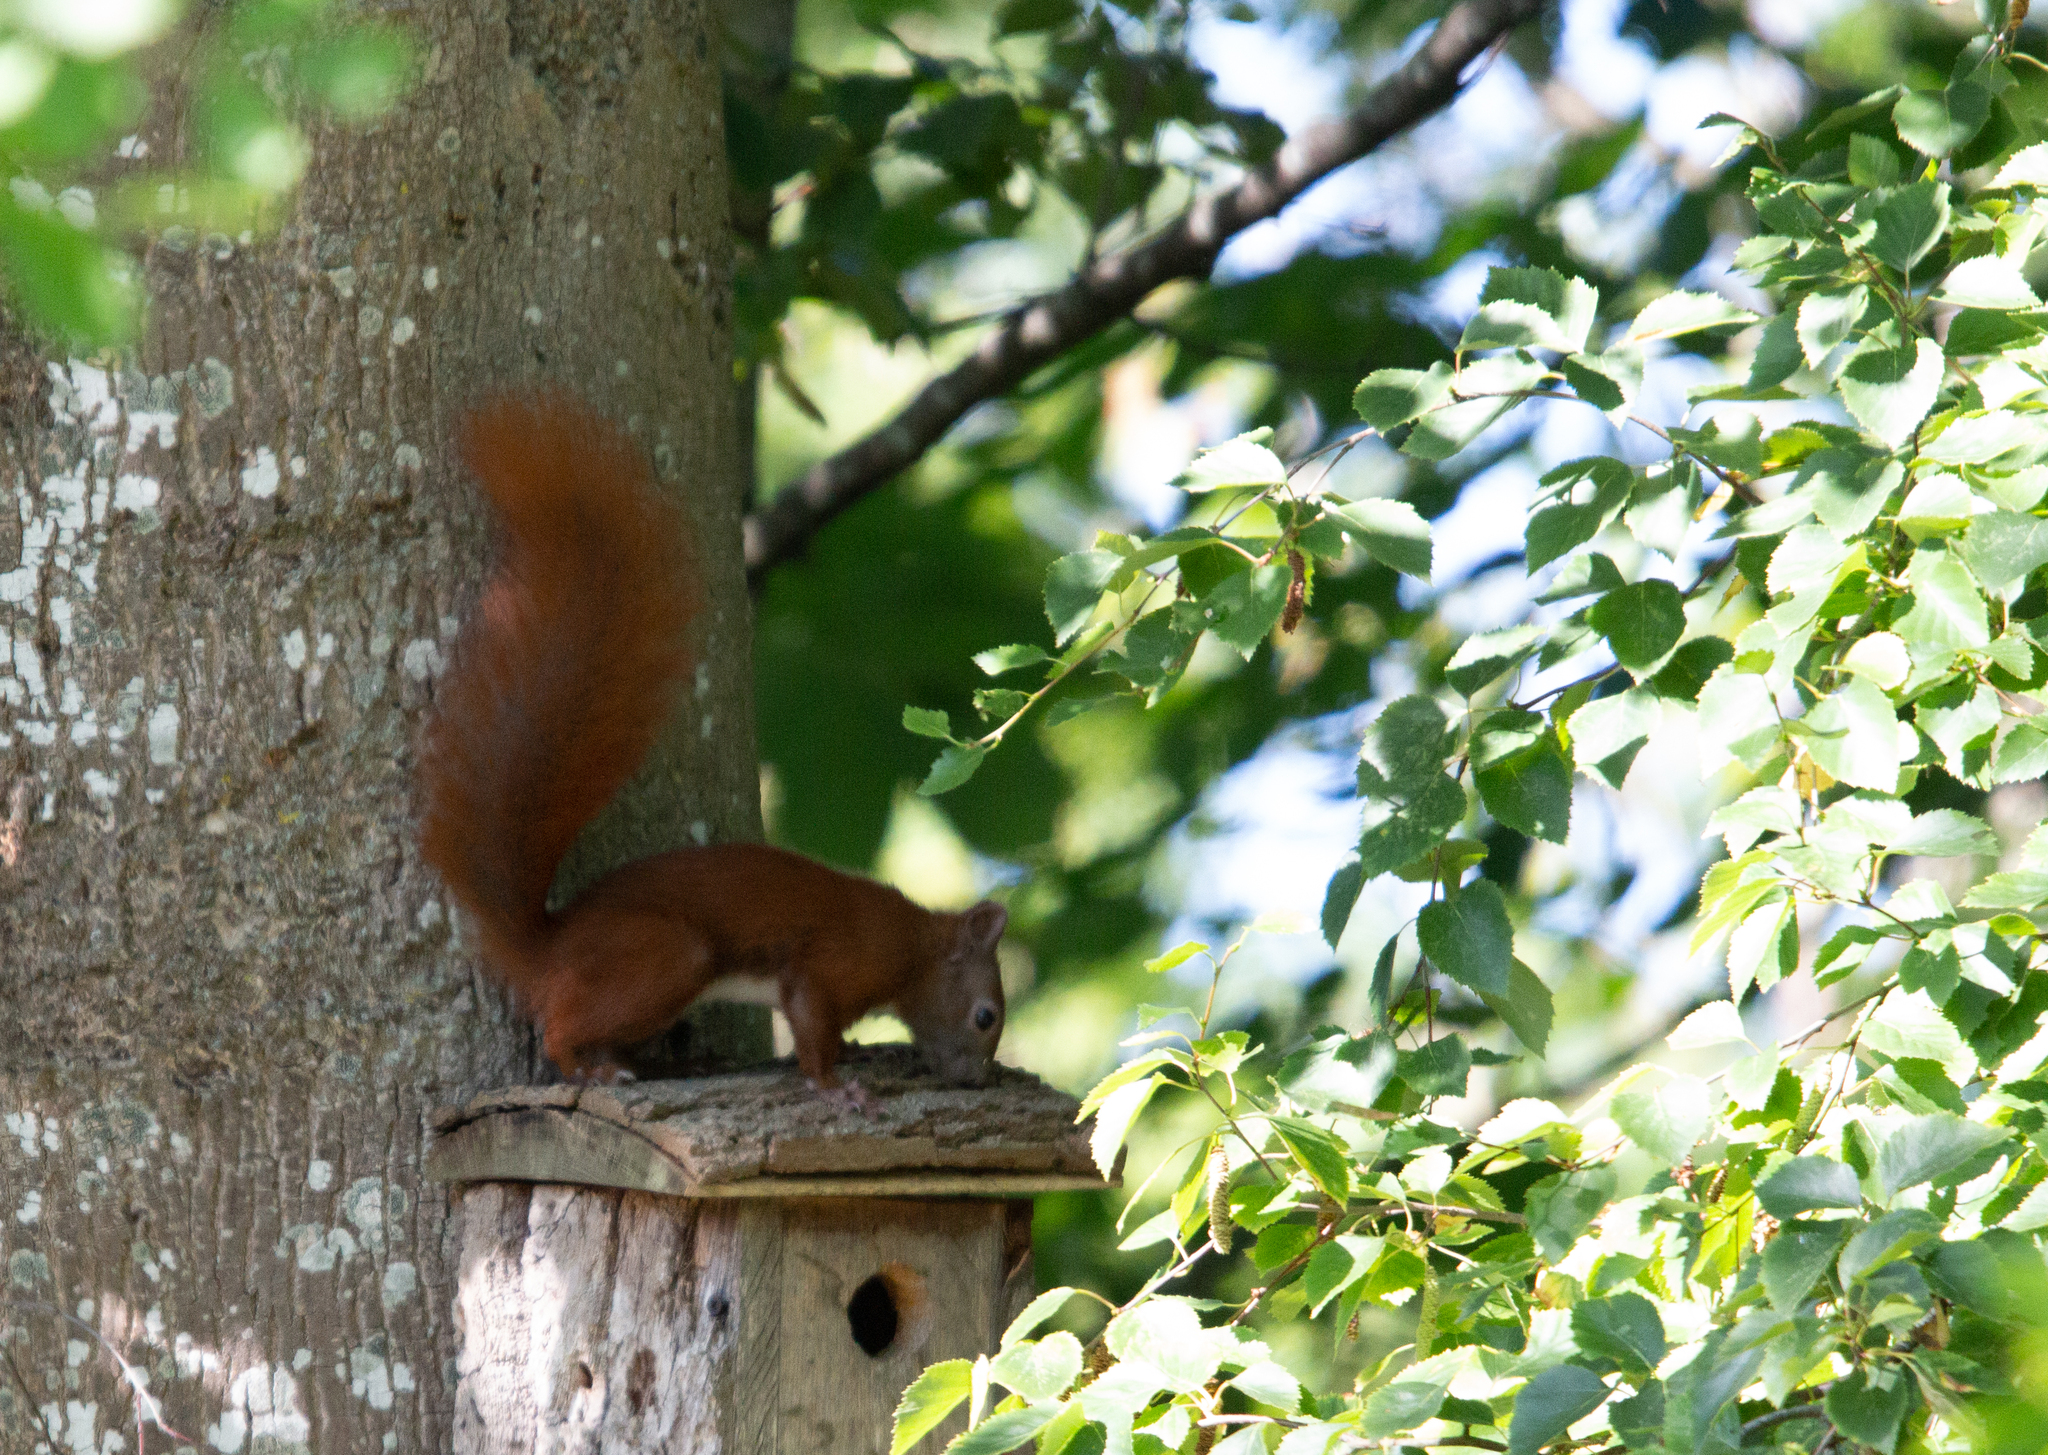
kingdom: Animalia
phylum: Chordata
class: Mammalia
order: Rodentia
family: Sciuridae
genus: Sciurus
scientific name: Sciurus vulgaris
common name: Eurasian red squirrel
